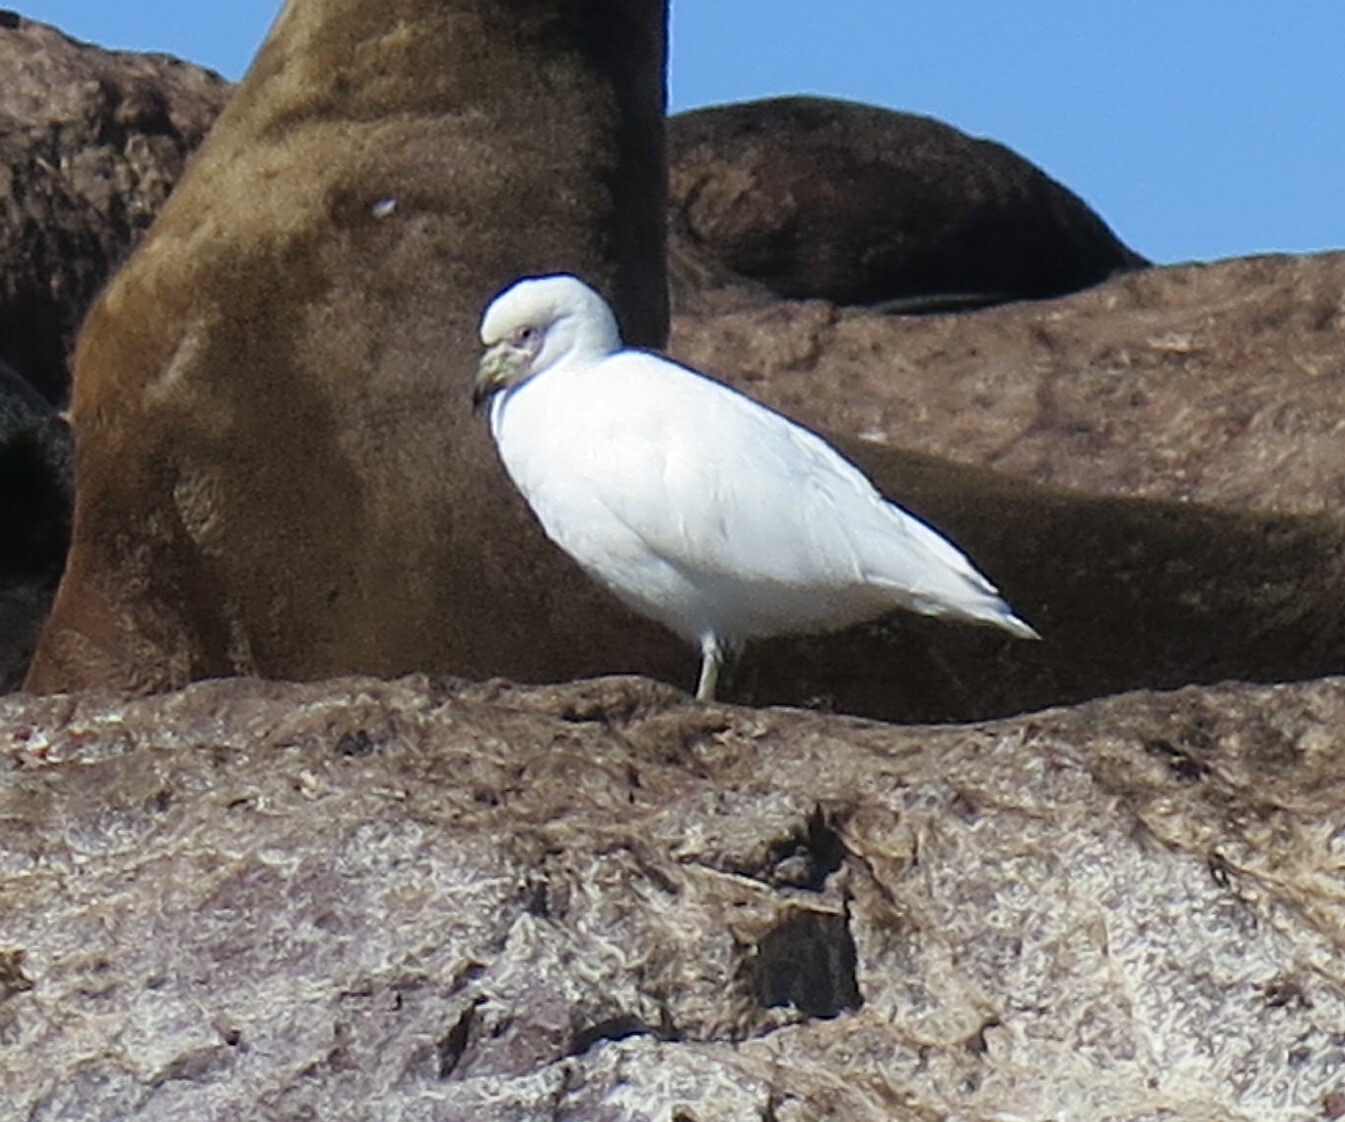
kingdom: Animalia
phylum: Chordata
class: Aves
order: Charadriiformes
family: Chionidae
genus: Chionis
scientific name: Chionis albus
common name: Snowy sheathbill
